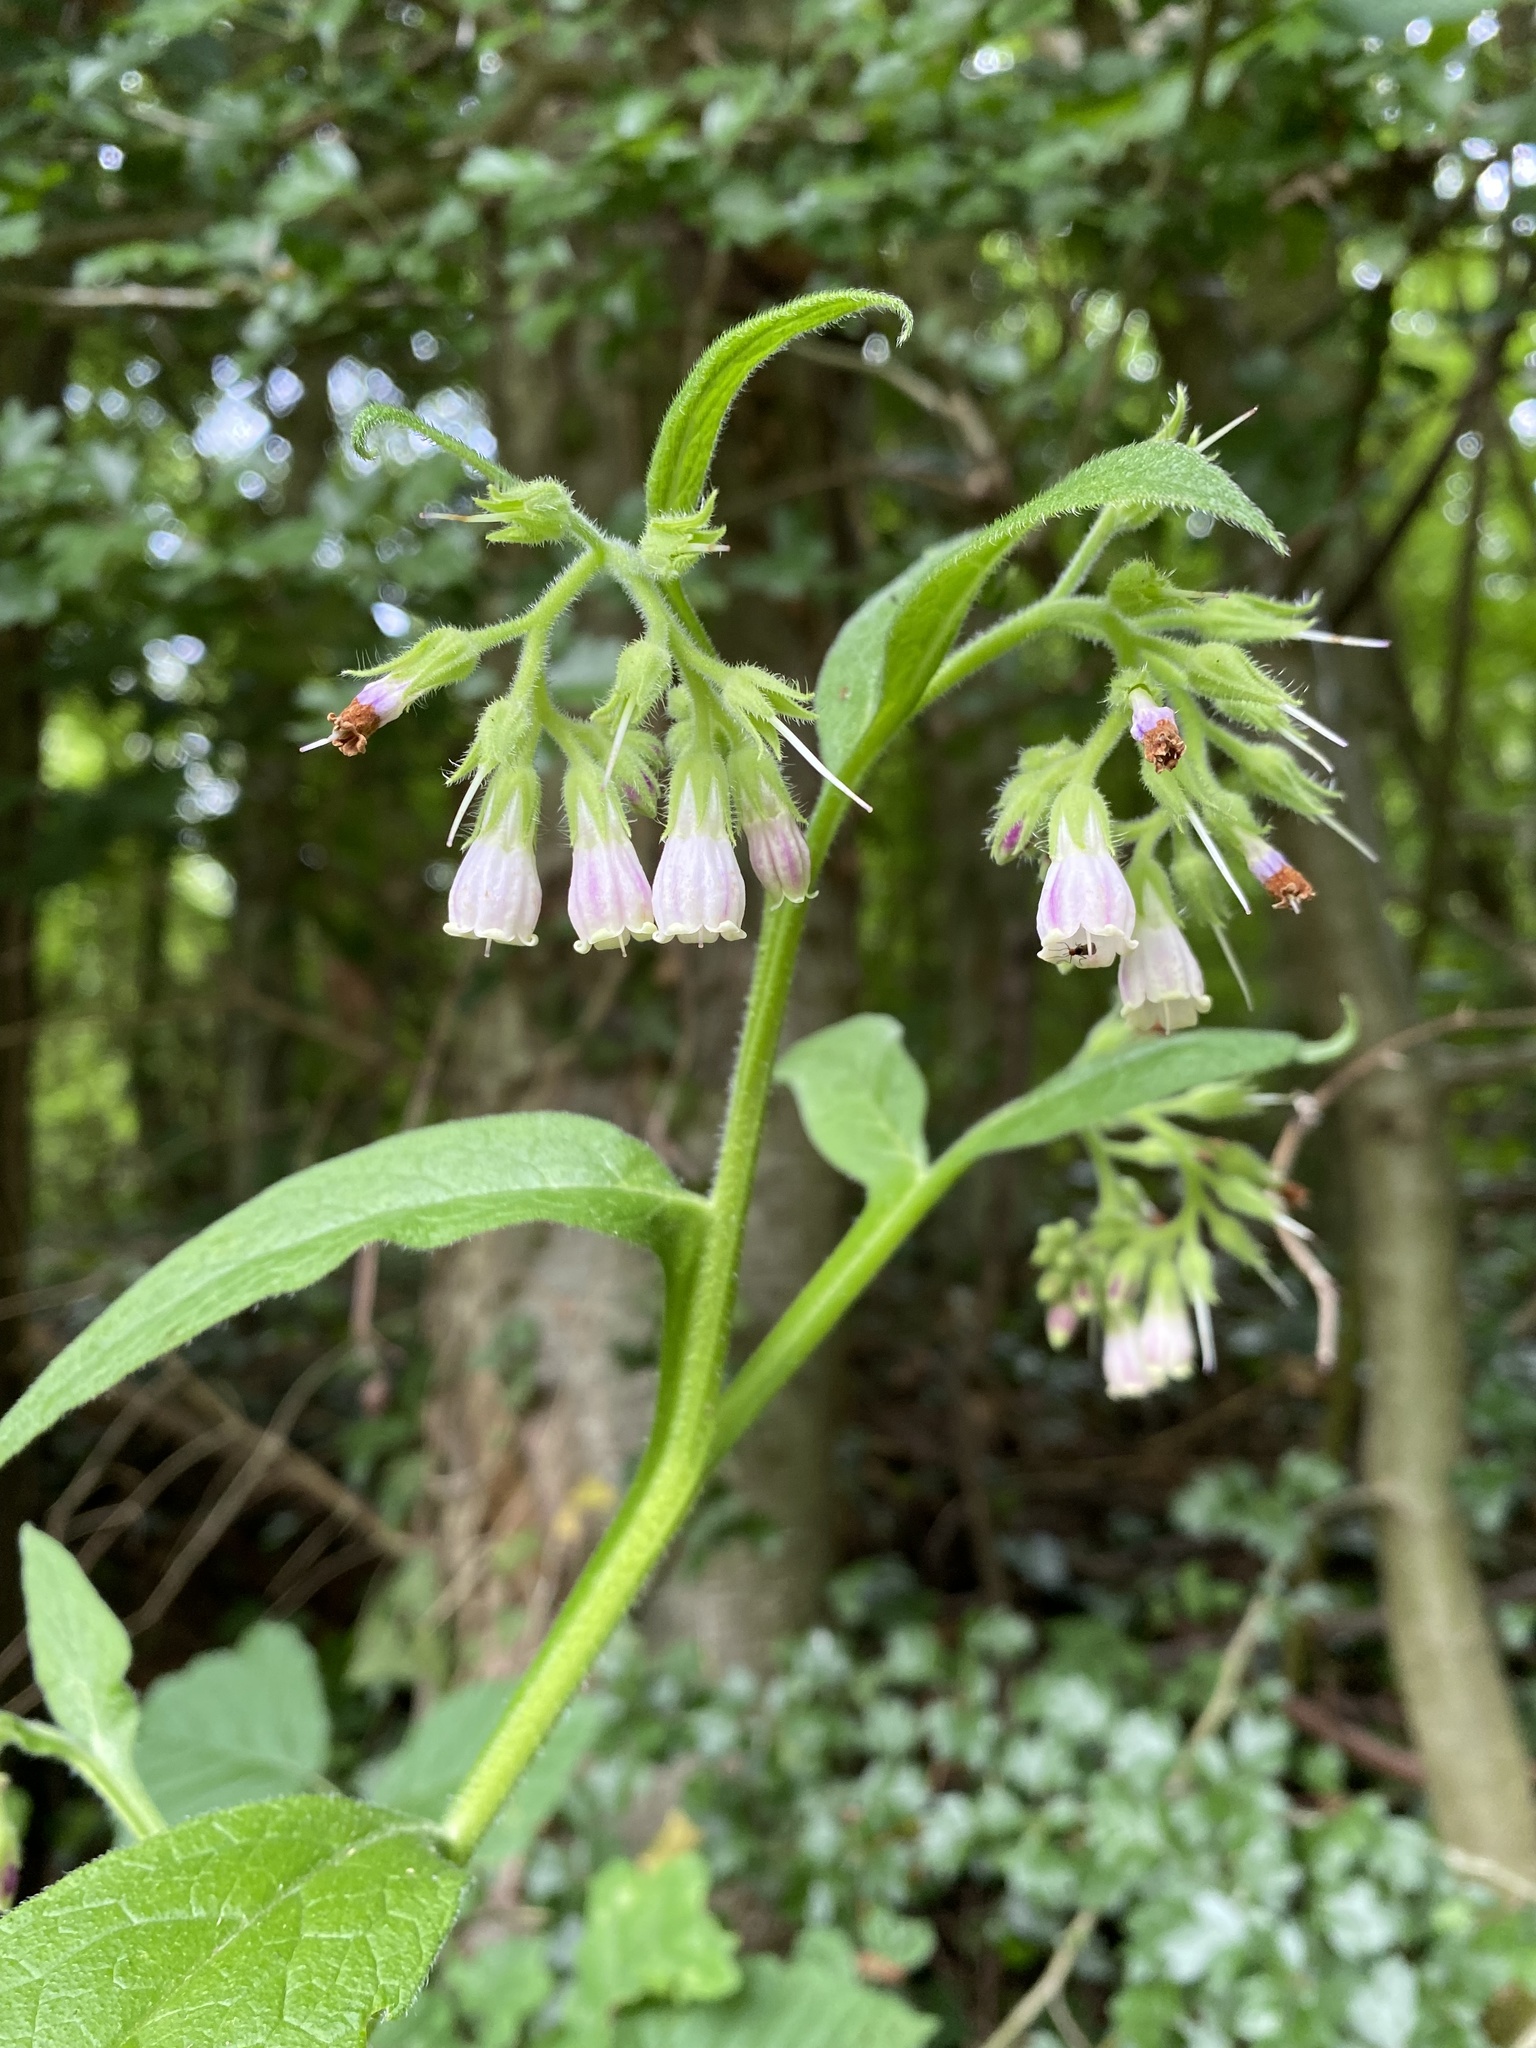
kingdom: Plantae
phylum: Tracheophyta
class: Magnoliopsida
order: Boraginales
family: Boraginaceae
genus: Symphytum
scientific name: Symphytum officinale
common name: Common comfrey
